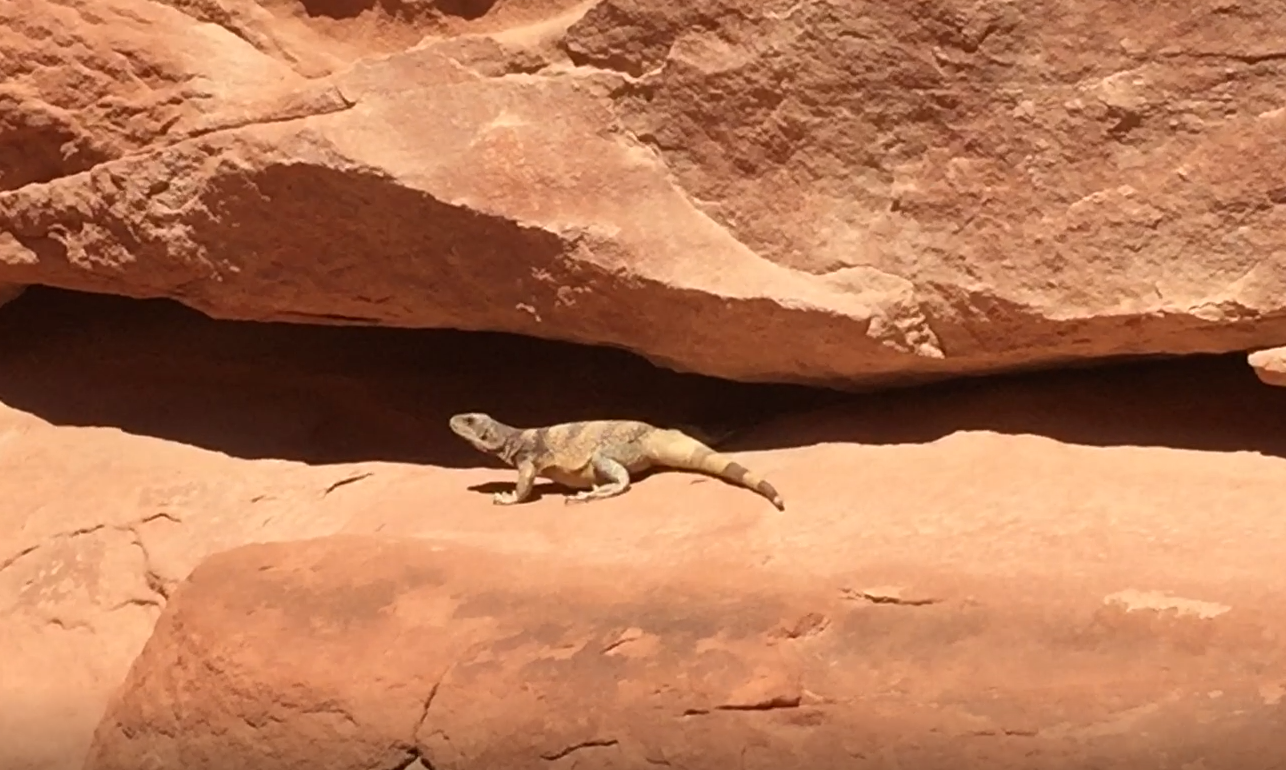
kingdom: Animalia
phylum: Chordata
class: Squamata
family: Iguanidae
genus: Sauromalus
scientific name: Sauromalus ater
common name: Northern chuckwalla
